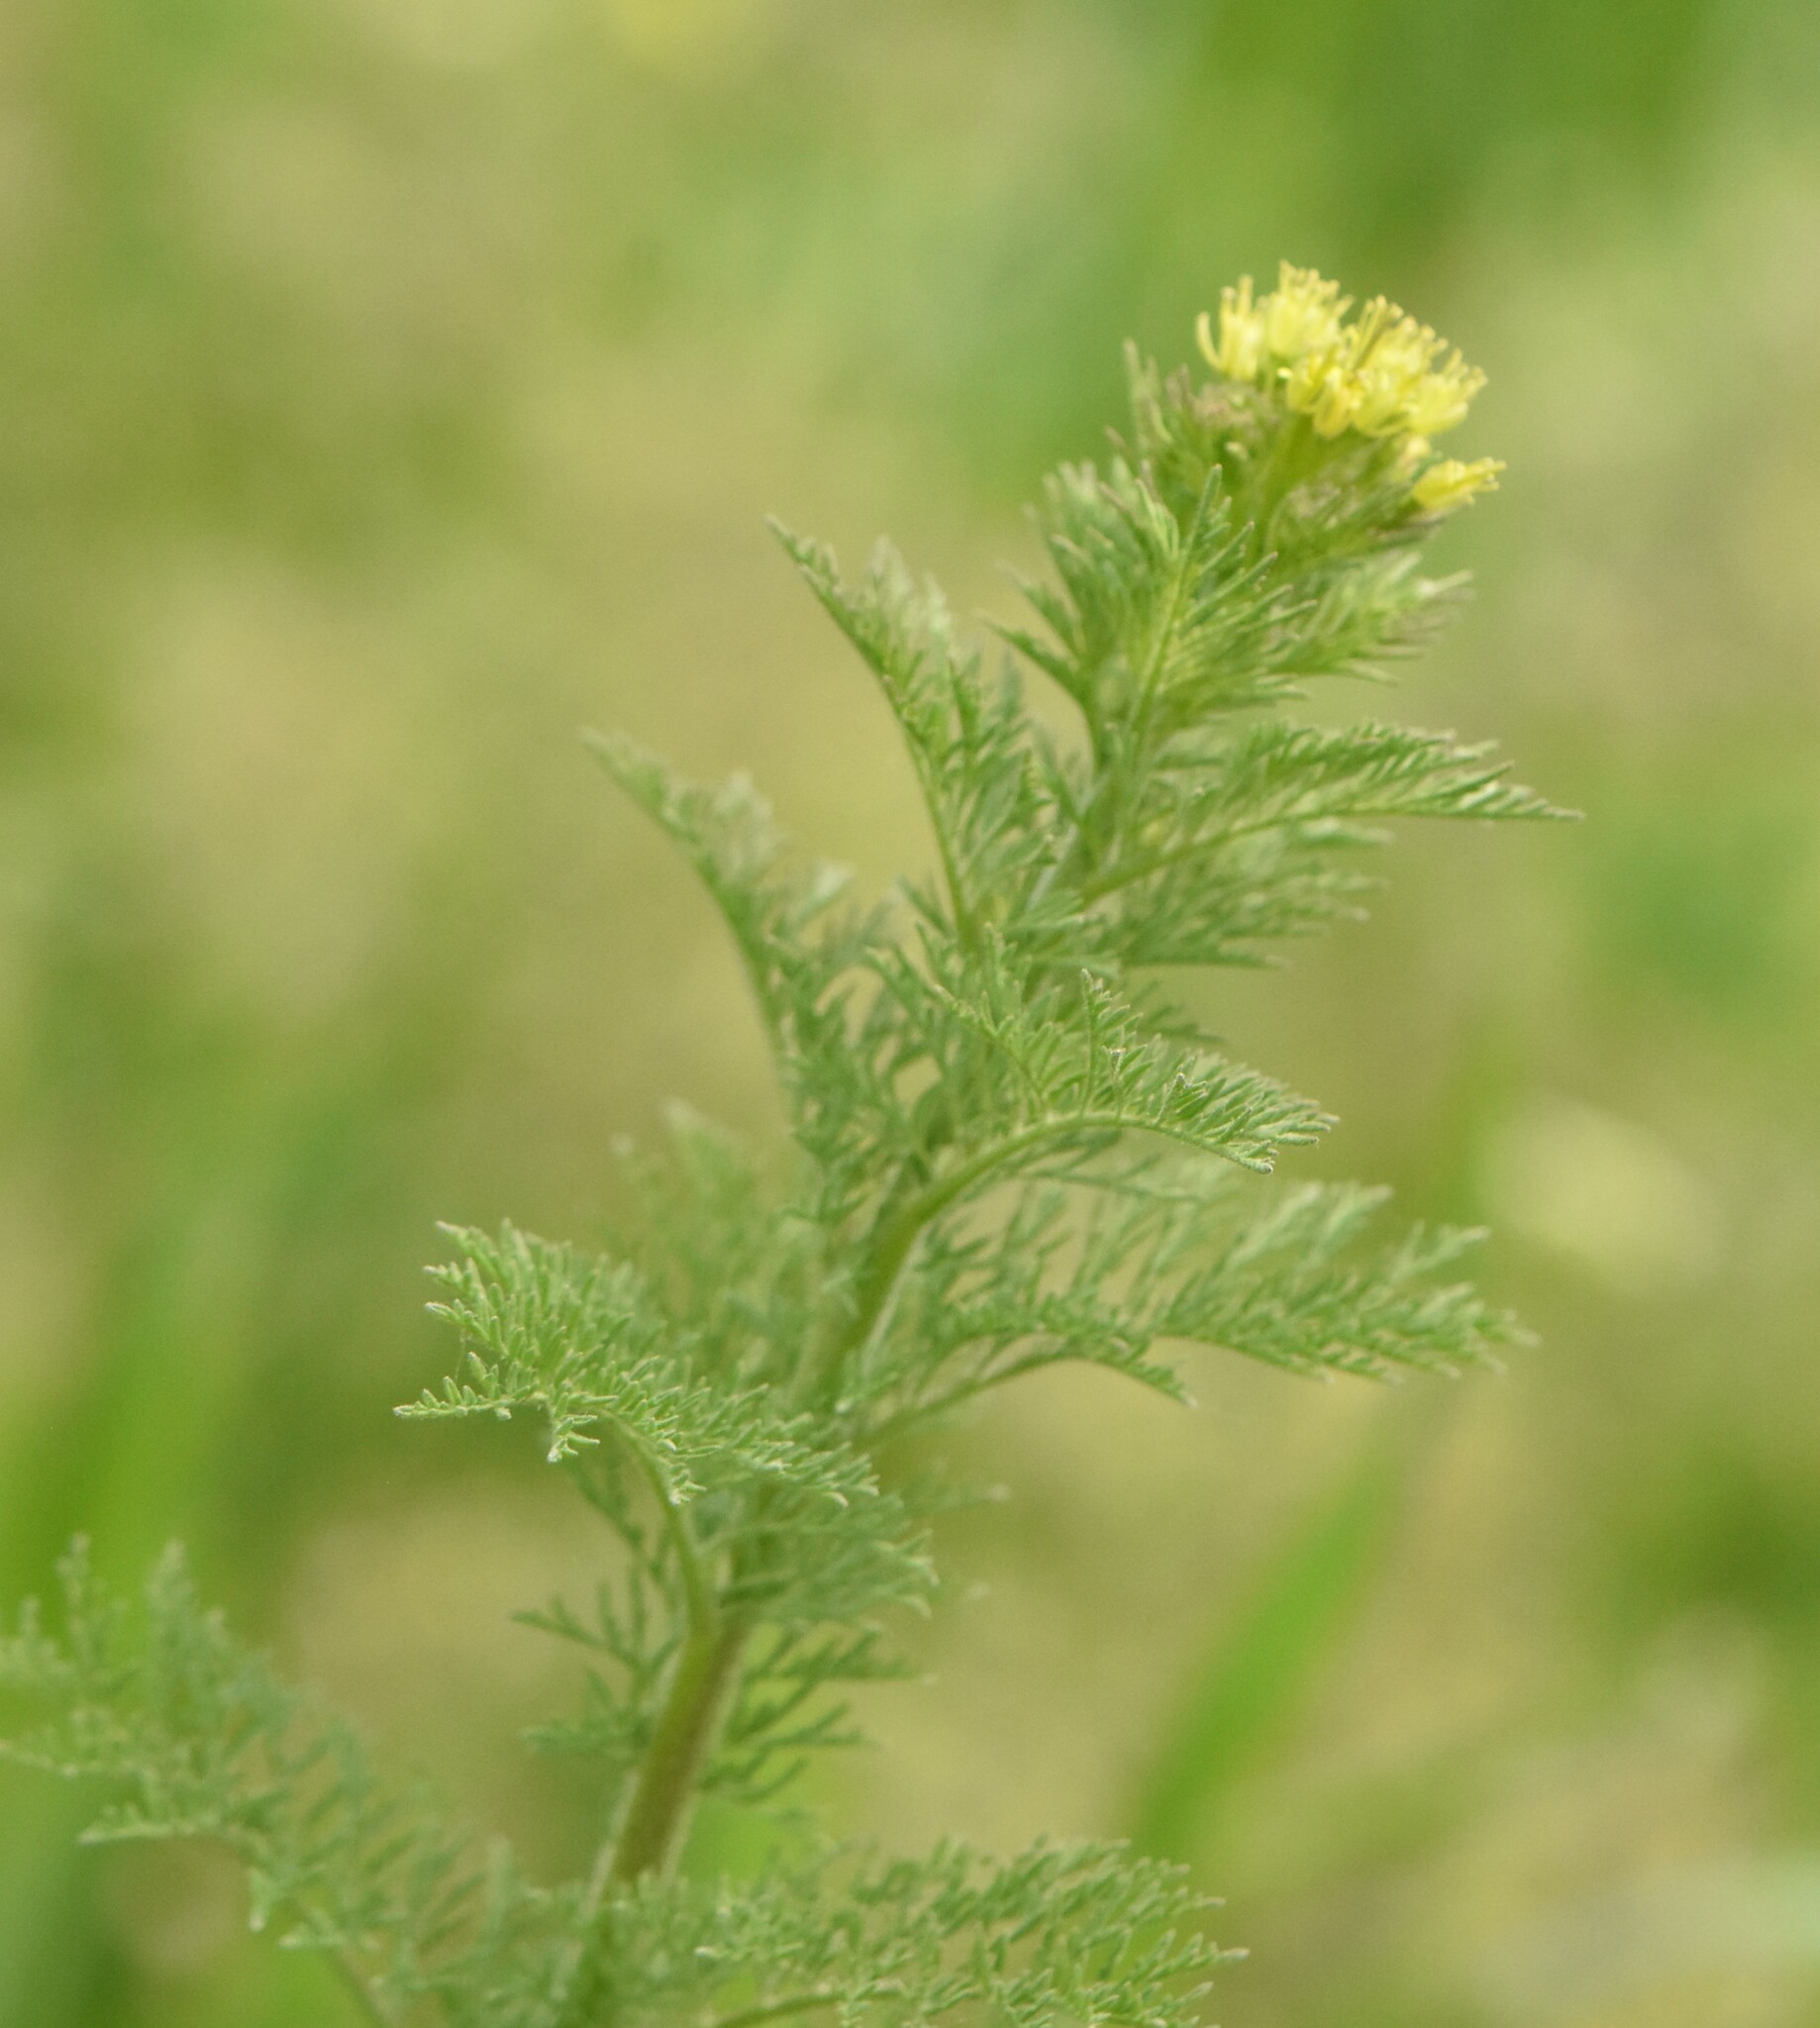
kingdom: Plantae
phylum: Tracheophyta
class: Magnoliopsida
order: Brassicales
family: Brassicaceae
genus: Descurainia
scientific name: Descurainia sophia
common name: Flixweed
